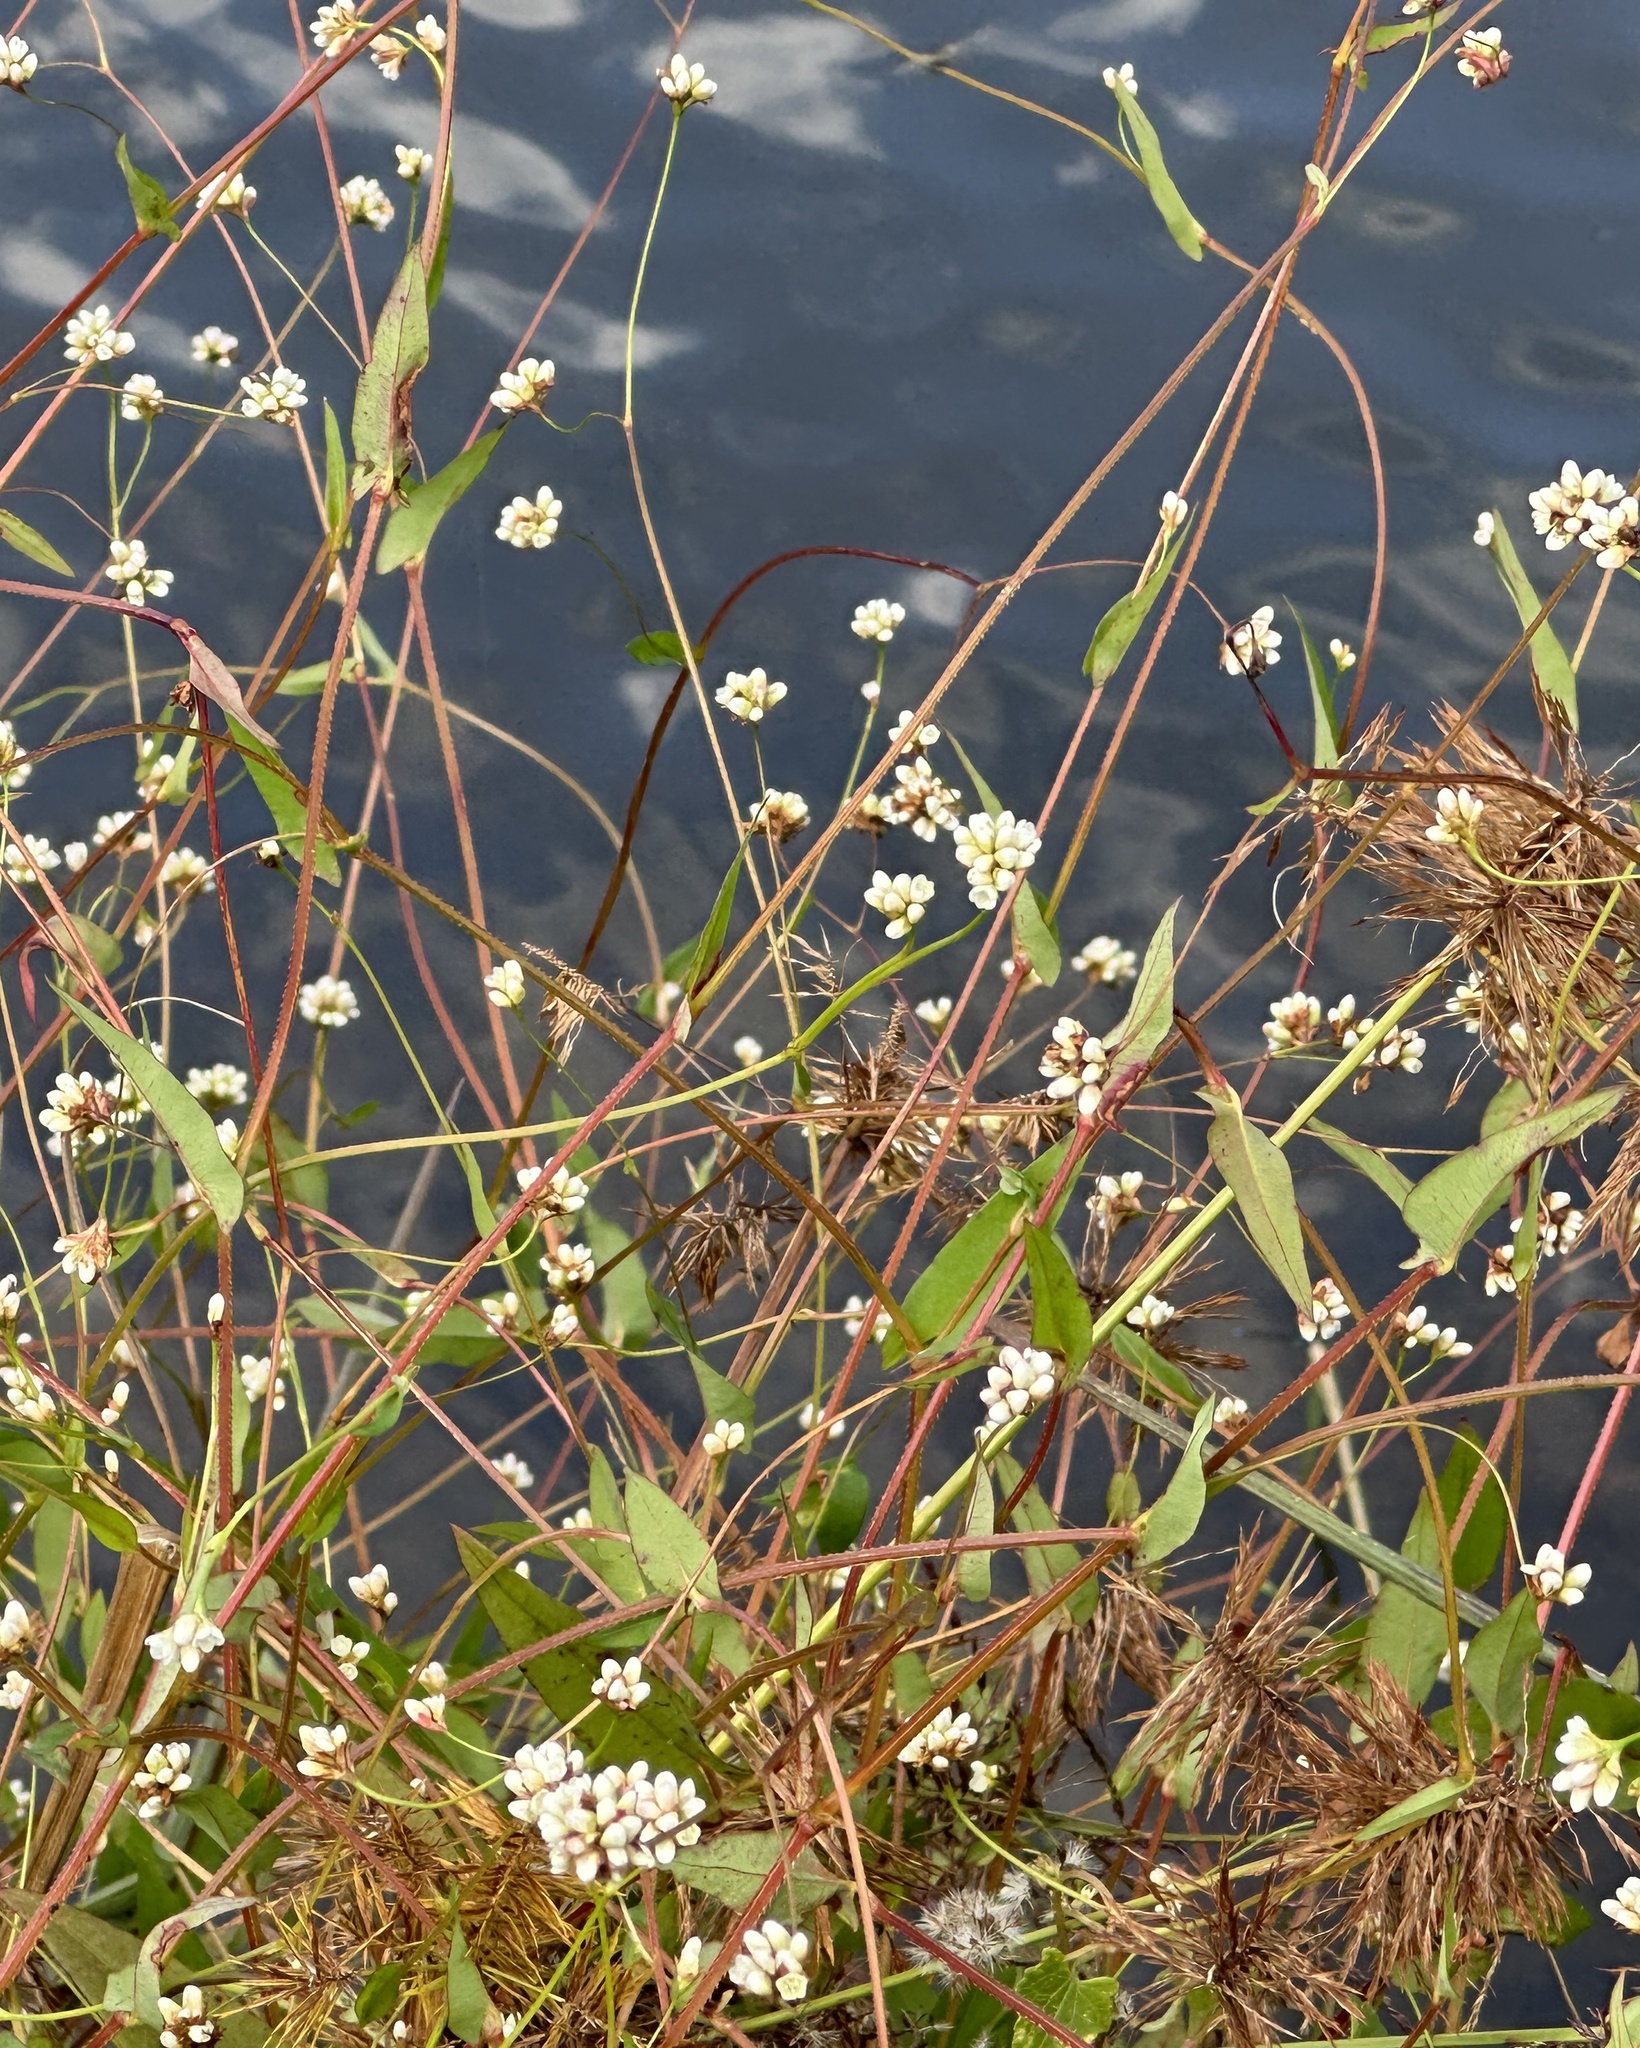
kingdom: Plantae
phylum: Tracheophyta
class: Magnoliopsida
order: Caryophyllales
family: Polygonaceae
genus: Persicaria
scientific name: Persicaria sagittata
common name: American tearthumb
